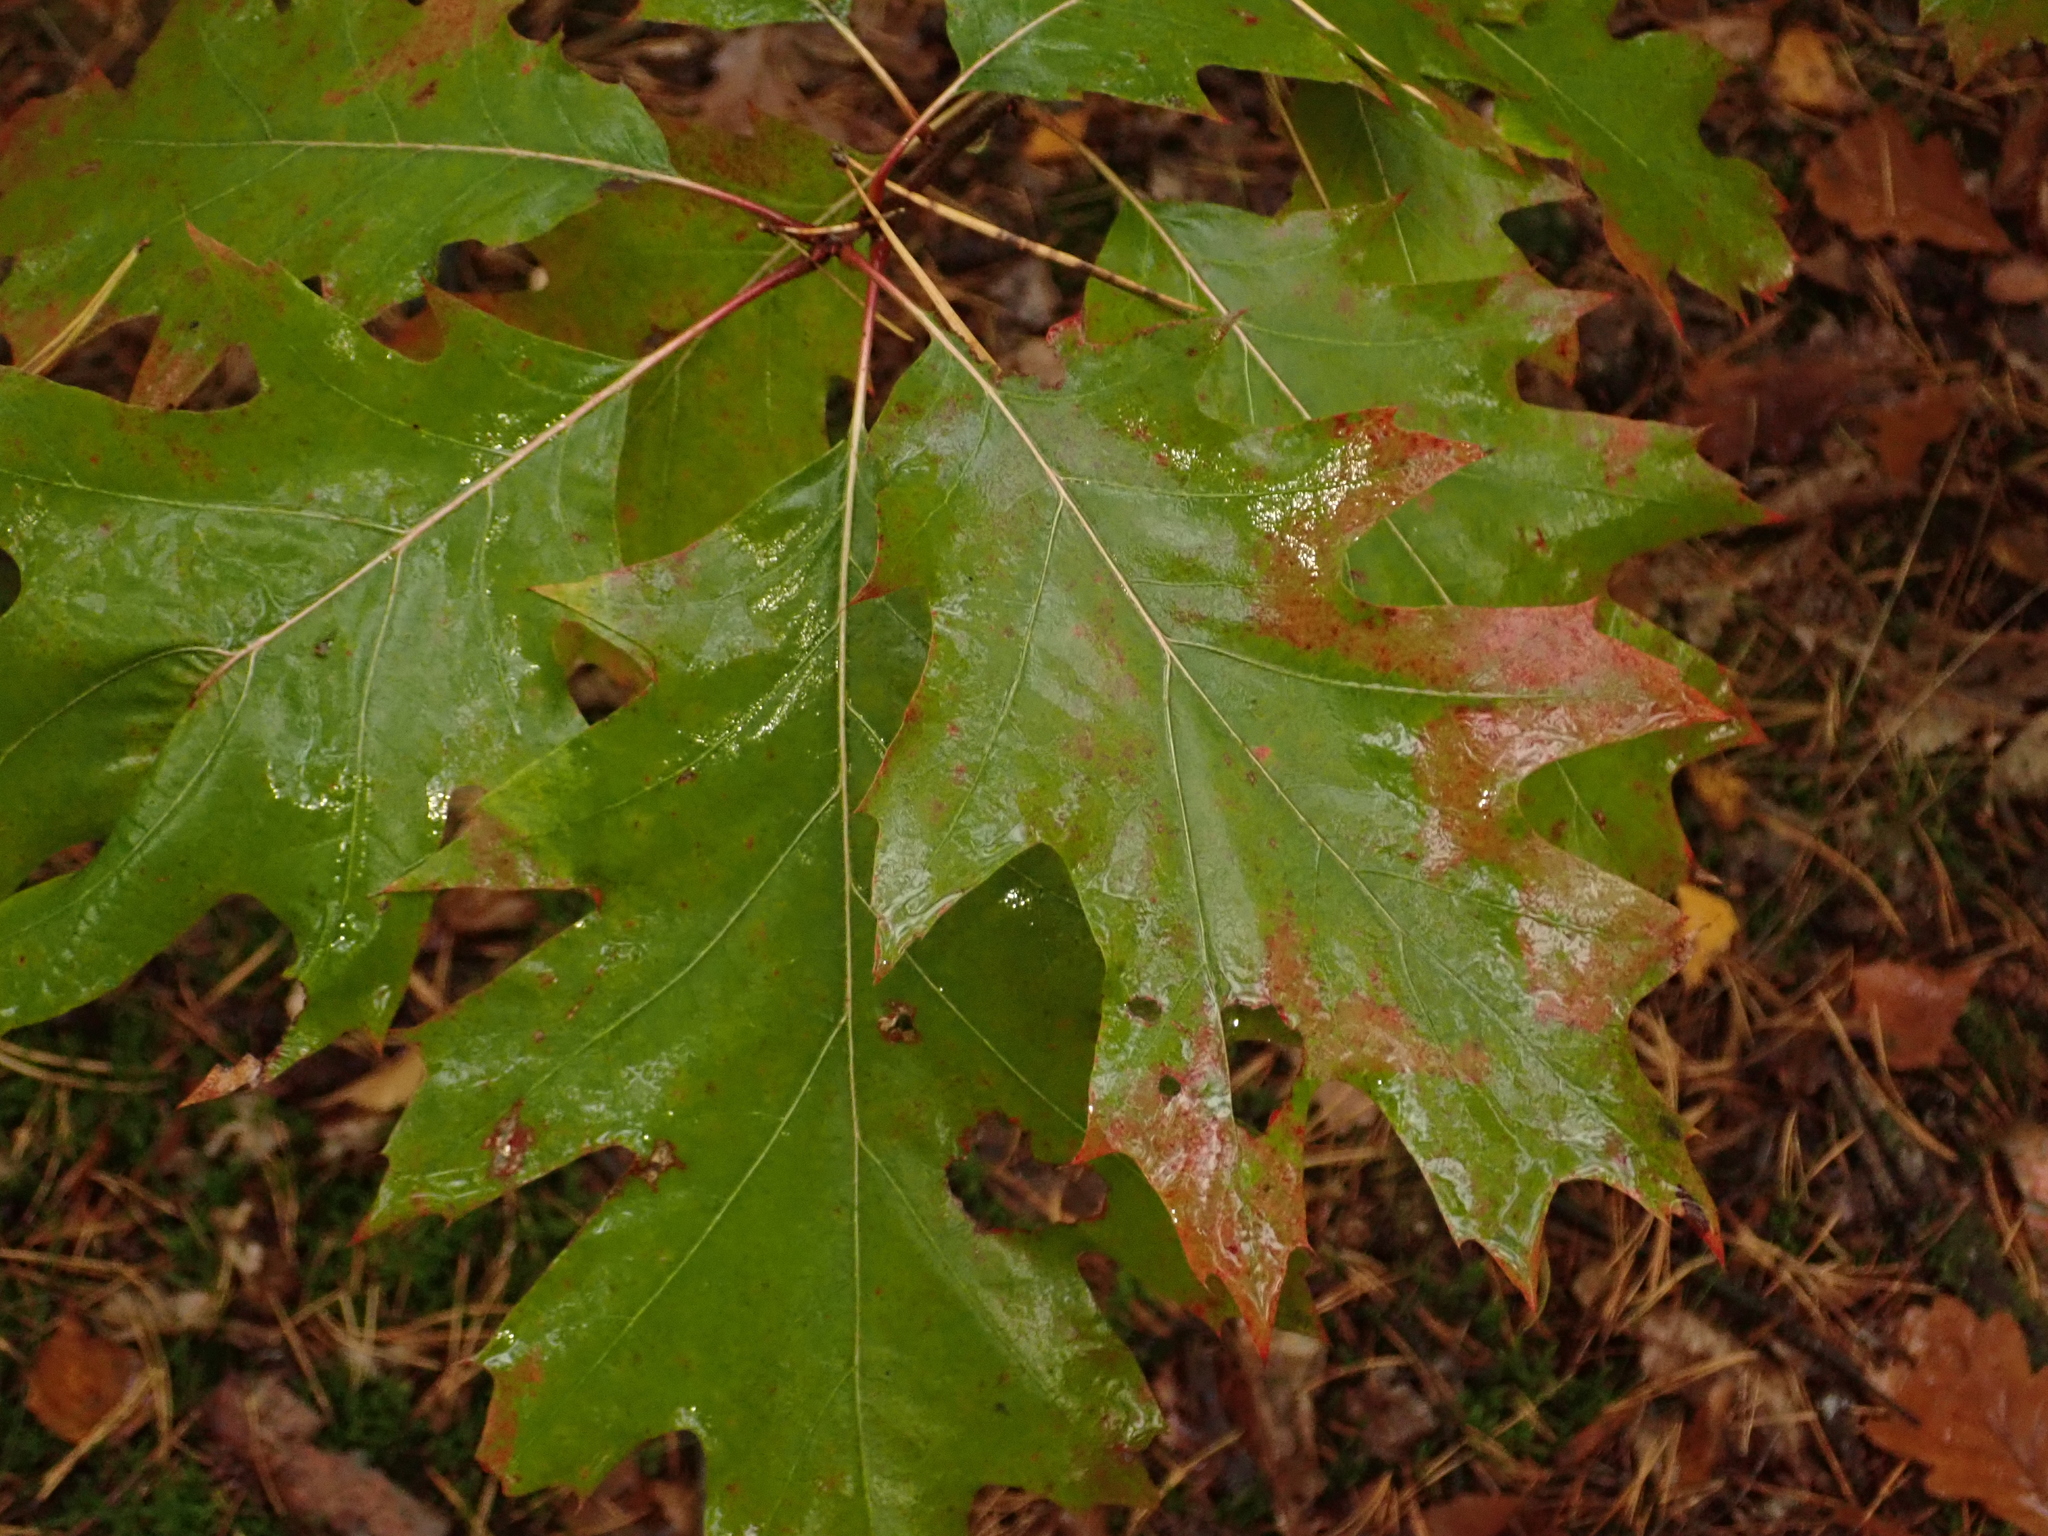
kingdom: Plantae
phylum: Tracheophyta
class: Magnoliopsida
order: Fagales
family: Fagaceae
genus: Quercus
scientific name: Quercus rubra
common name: Red oak
